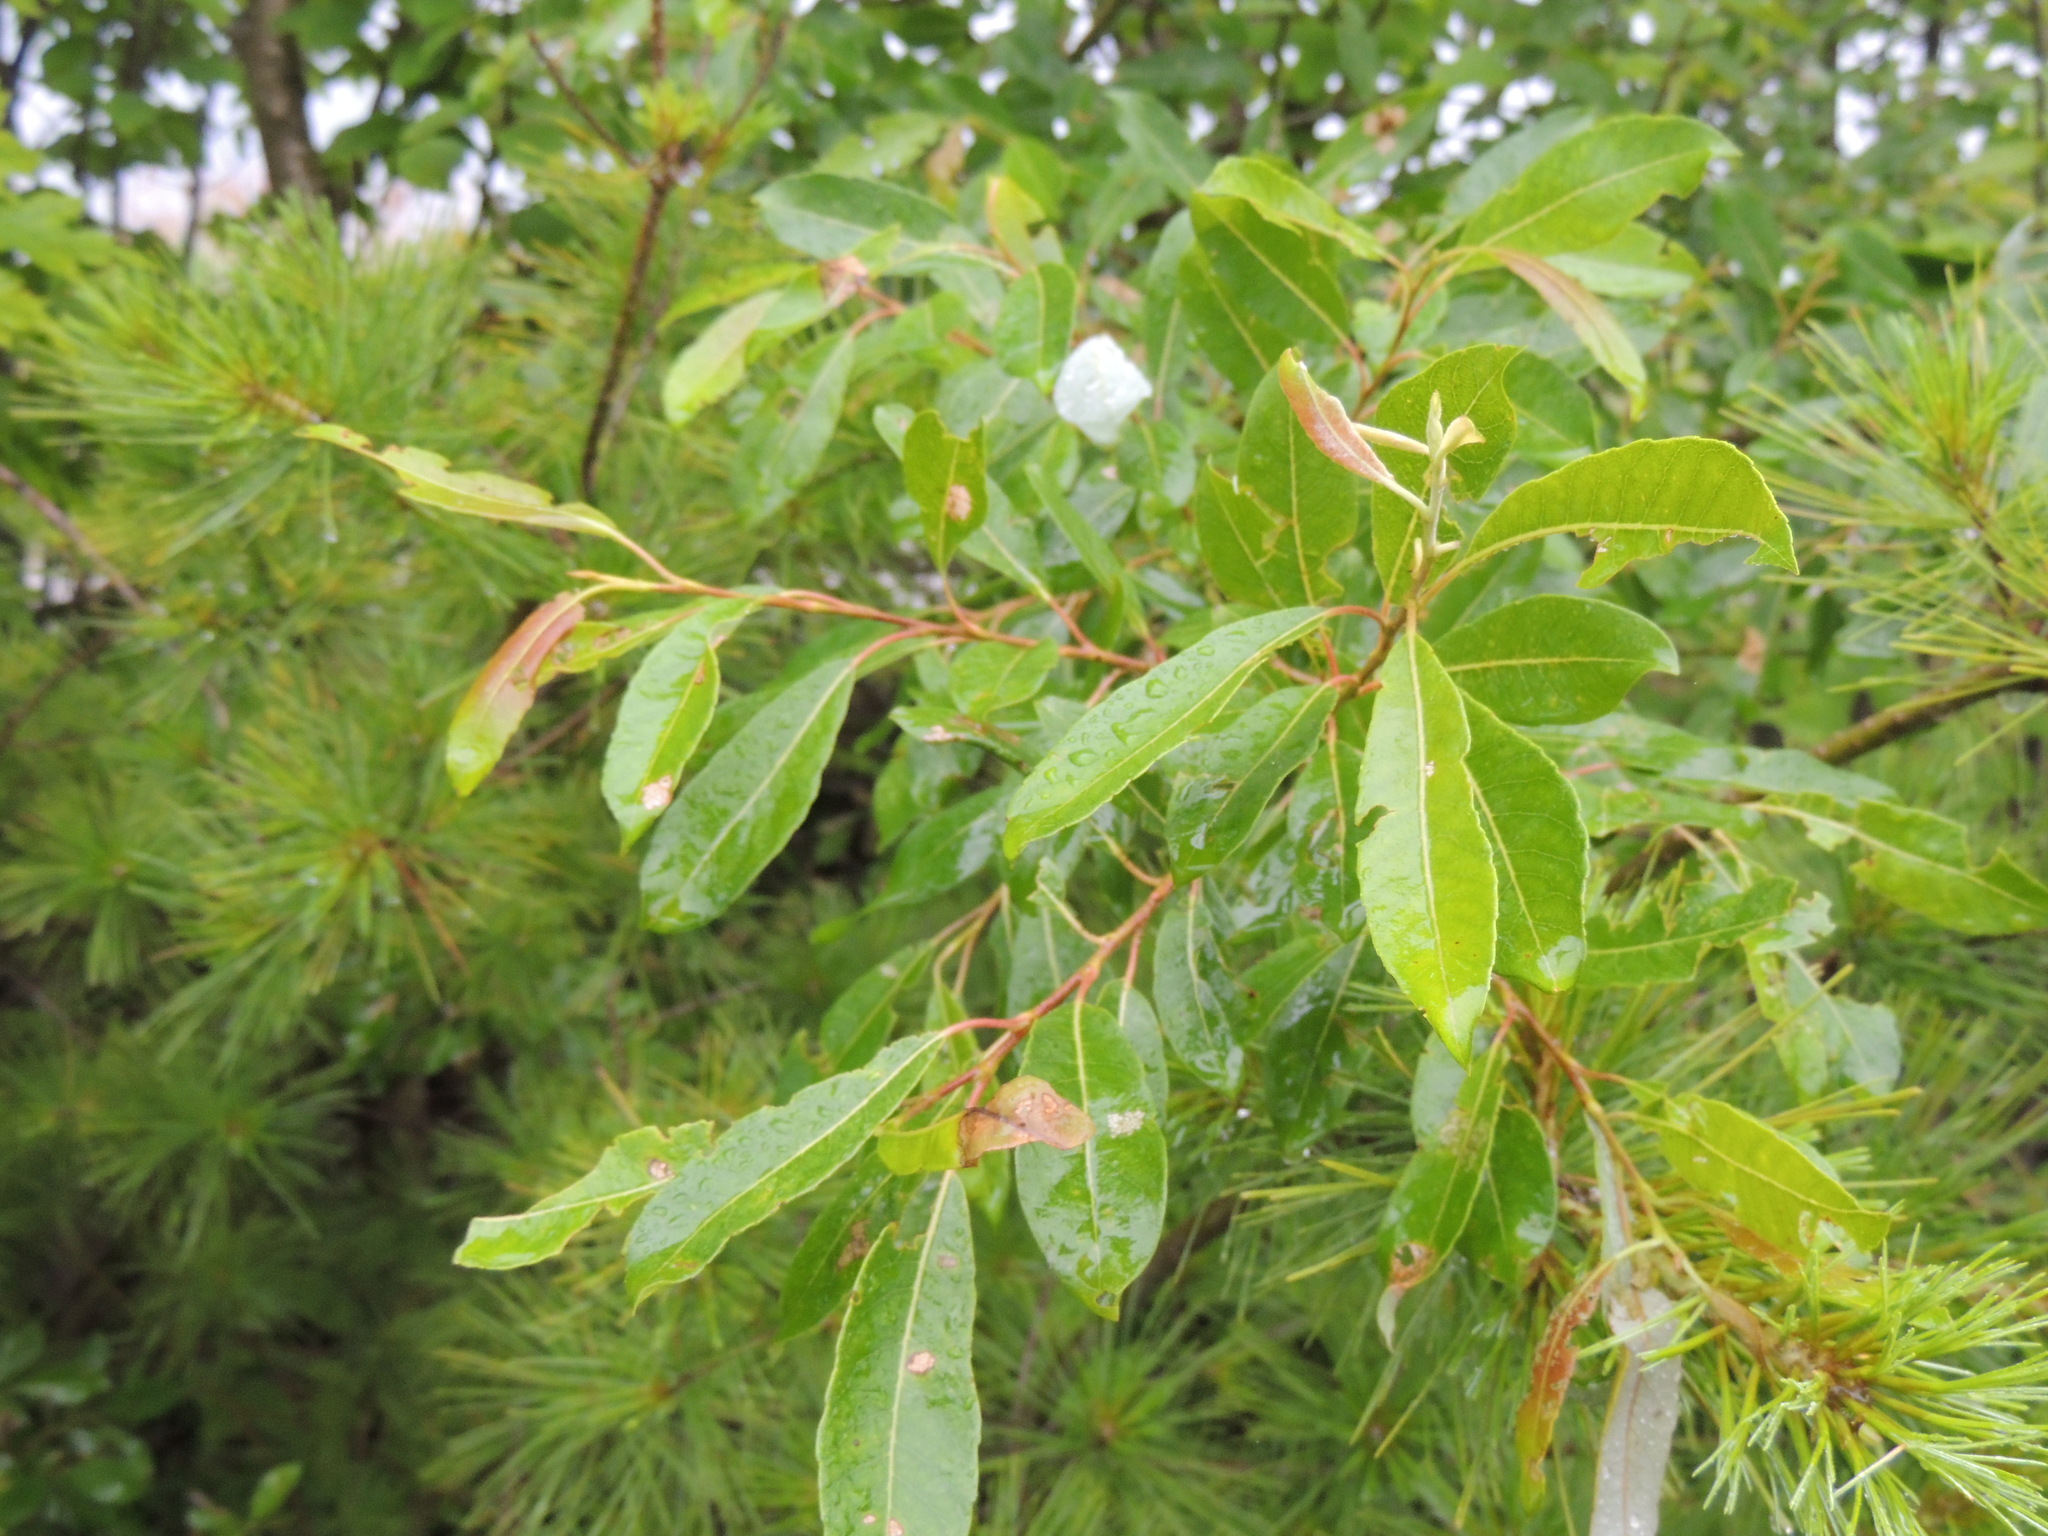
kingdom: Plantae
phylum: Tracheophyta
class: Magnoliopsida
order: Malpighiales
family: Salicaceae
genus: Salix
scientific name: Salix discolor
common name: Glaucous willow
